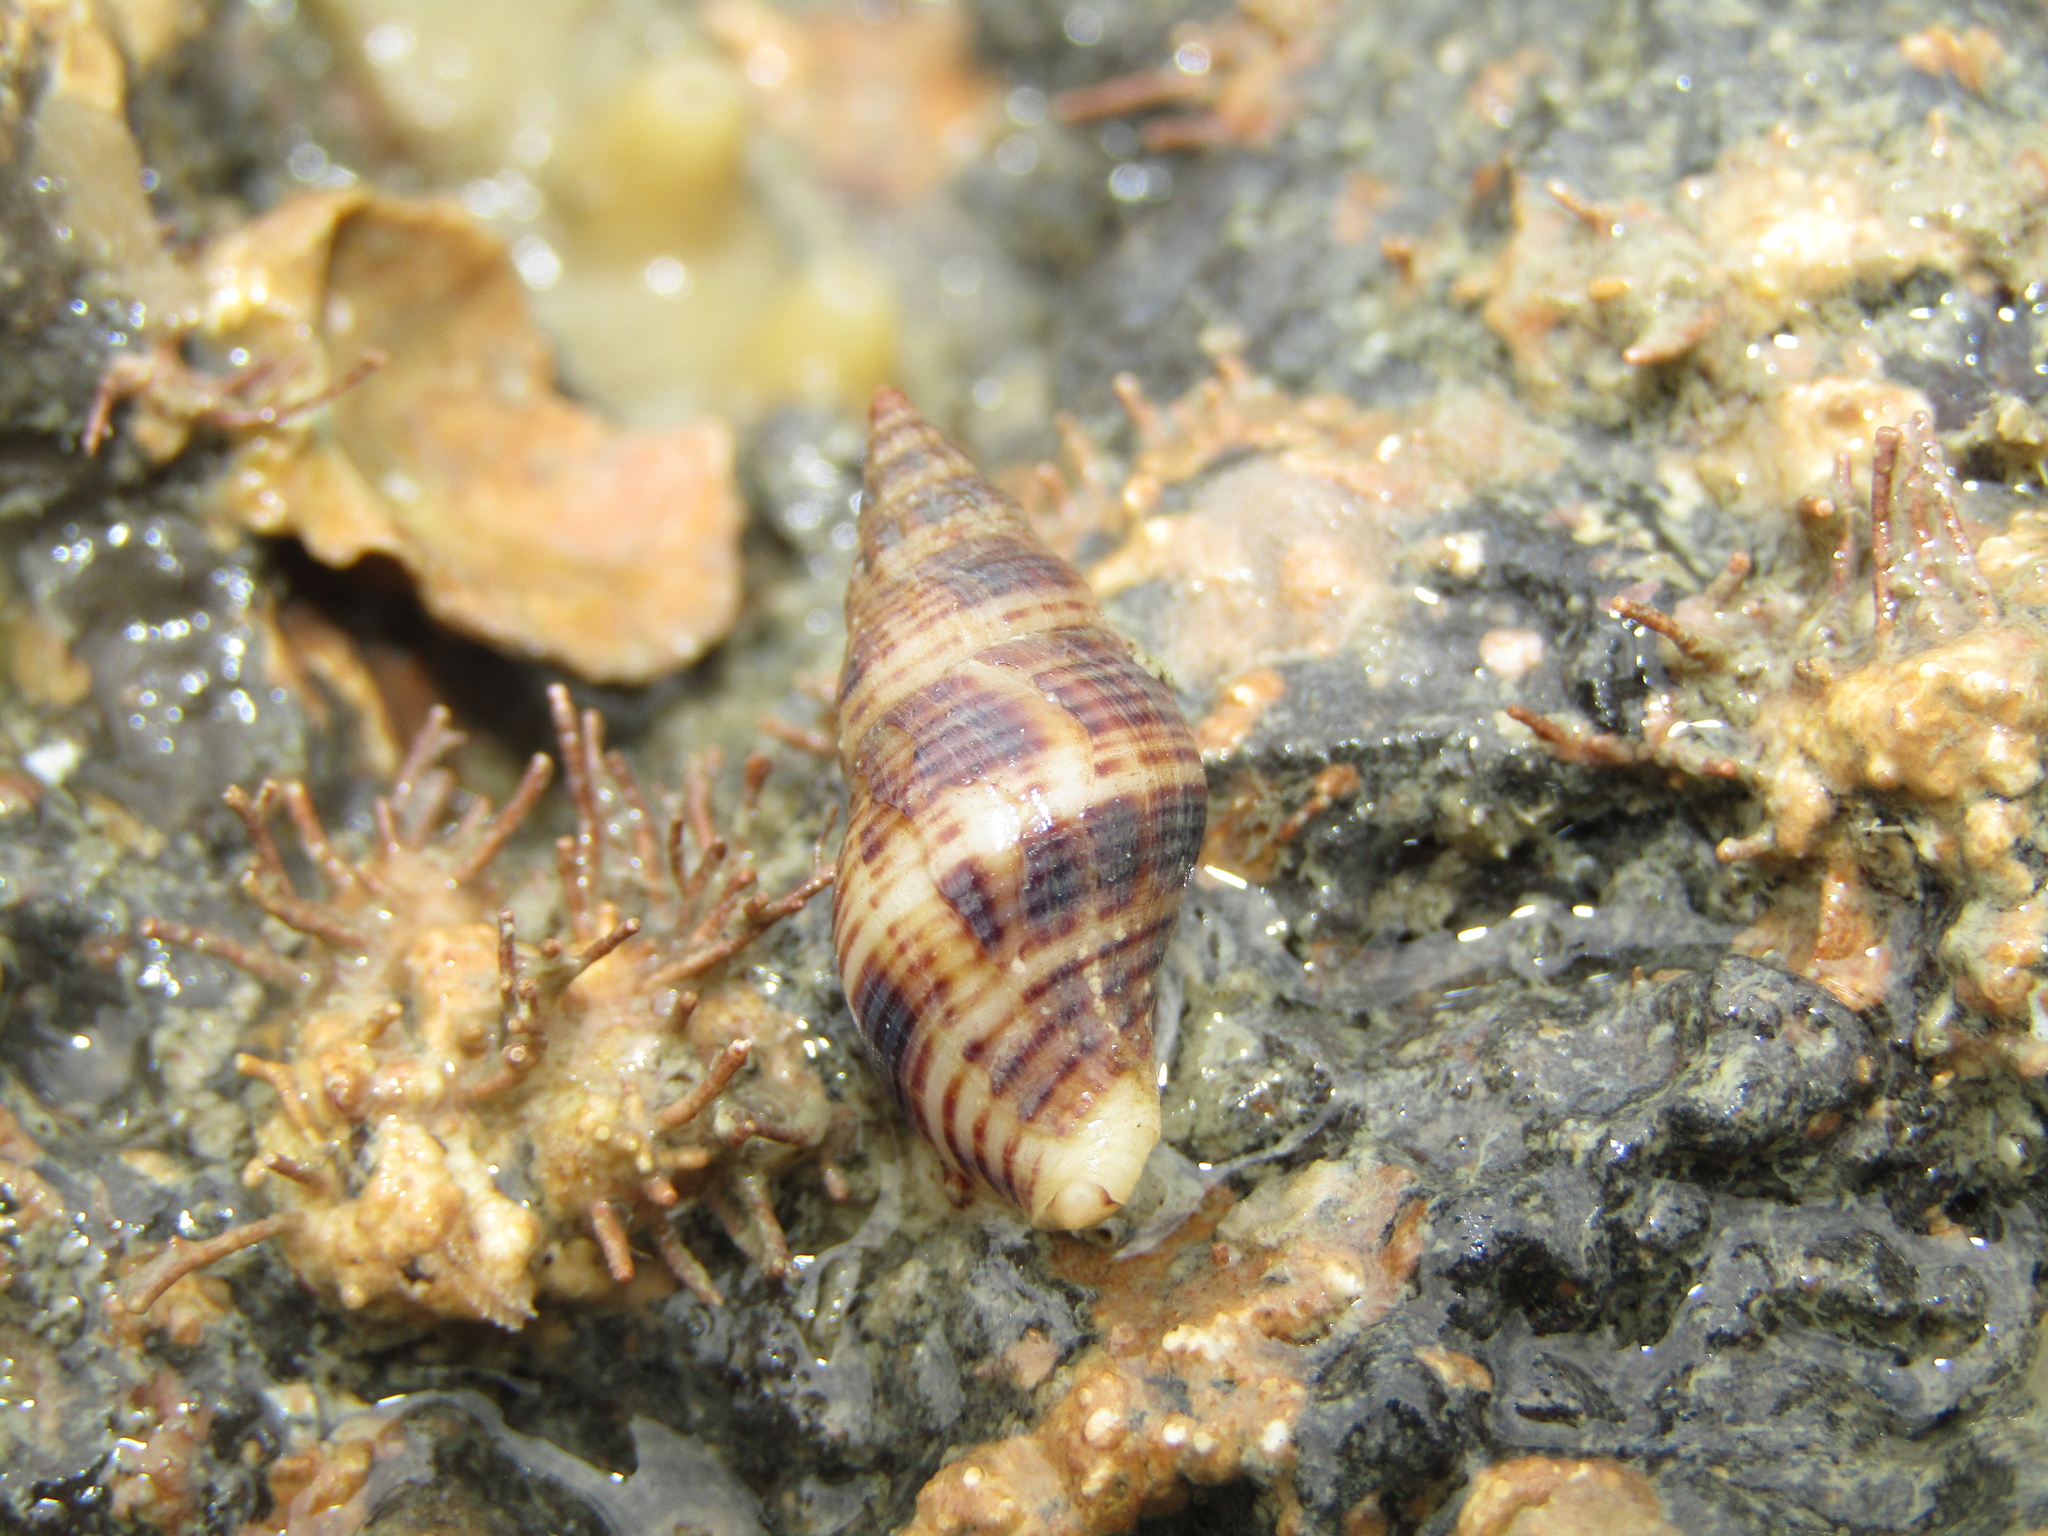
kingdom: Animalia
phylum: Mollusca
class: Gastropoda
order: Neogastropoda
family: Tudiclidae
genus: Buccinulum
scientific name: Buccinulum vittatum
